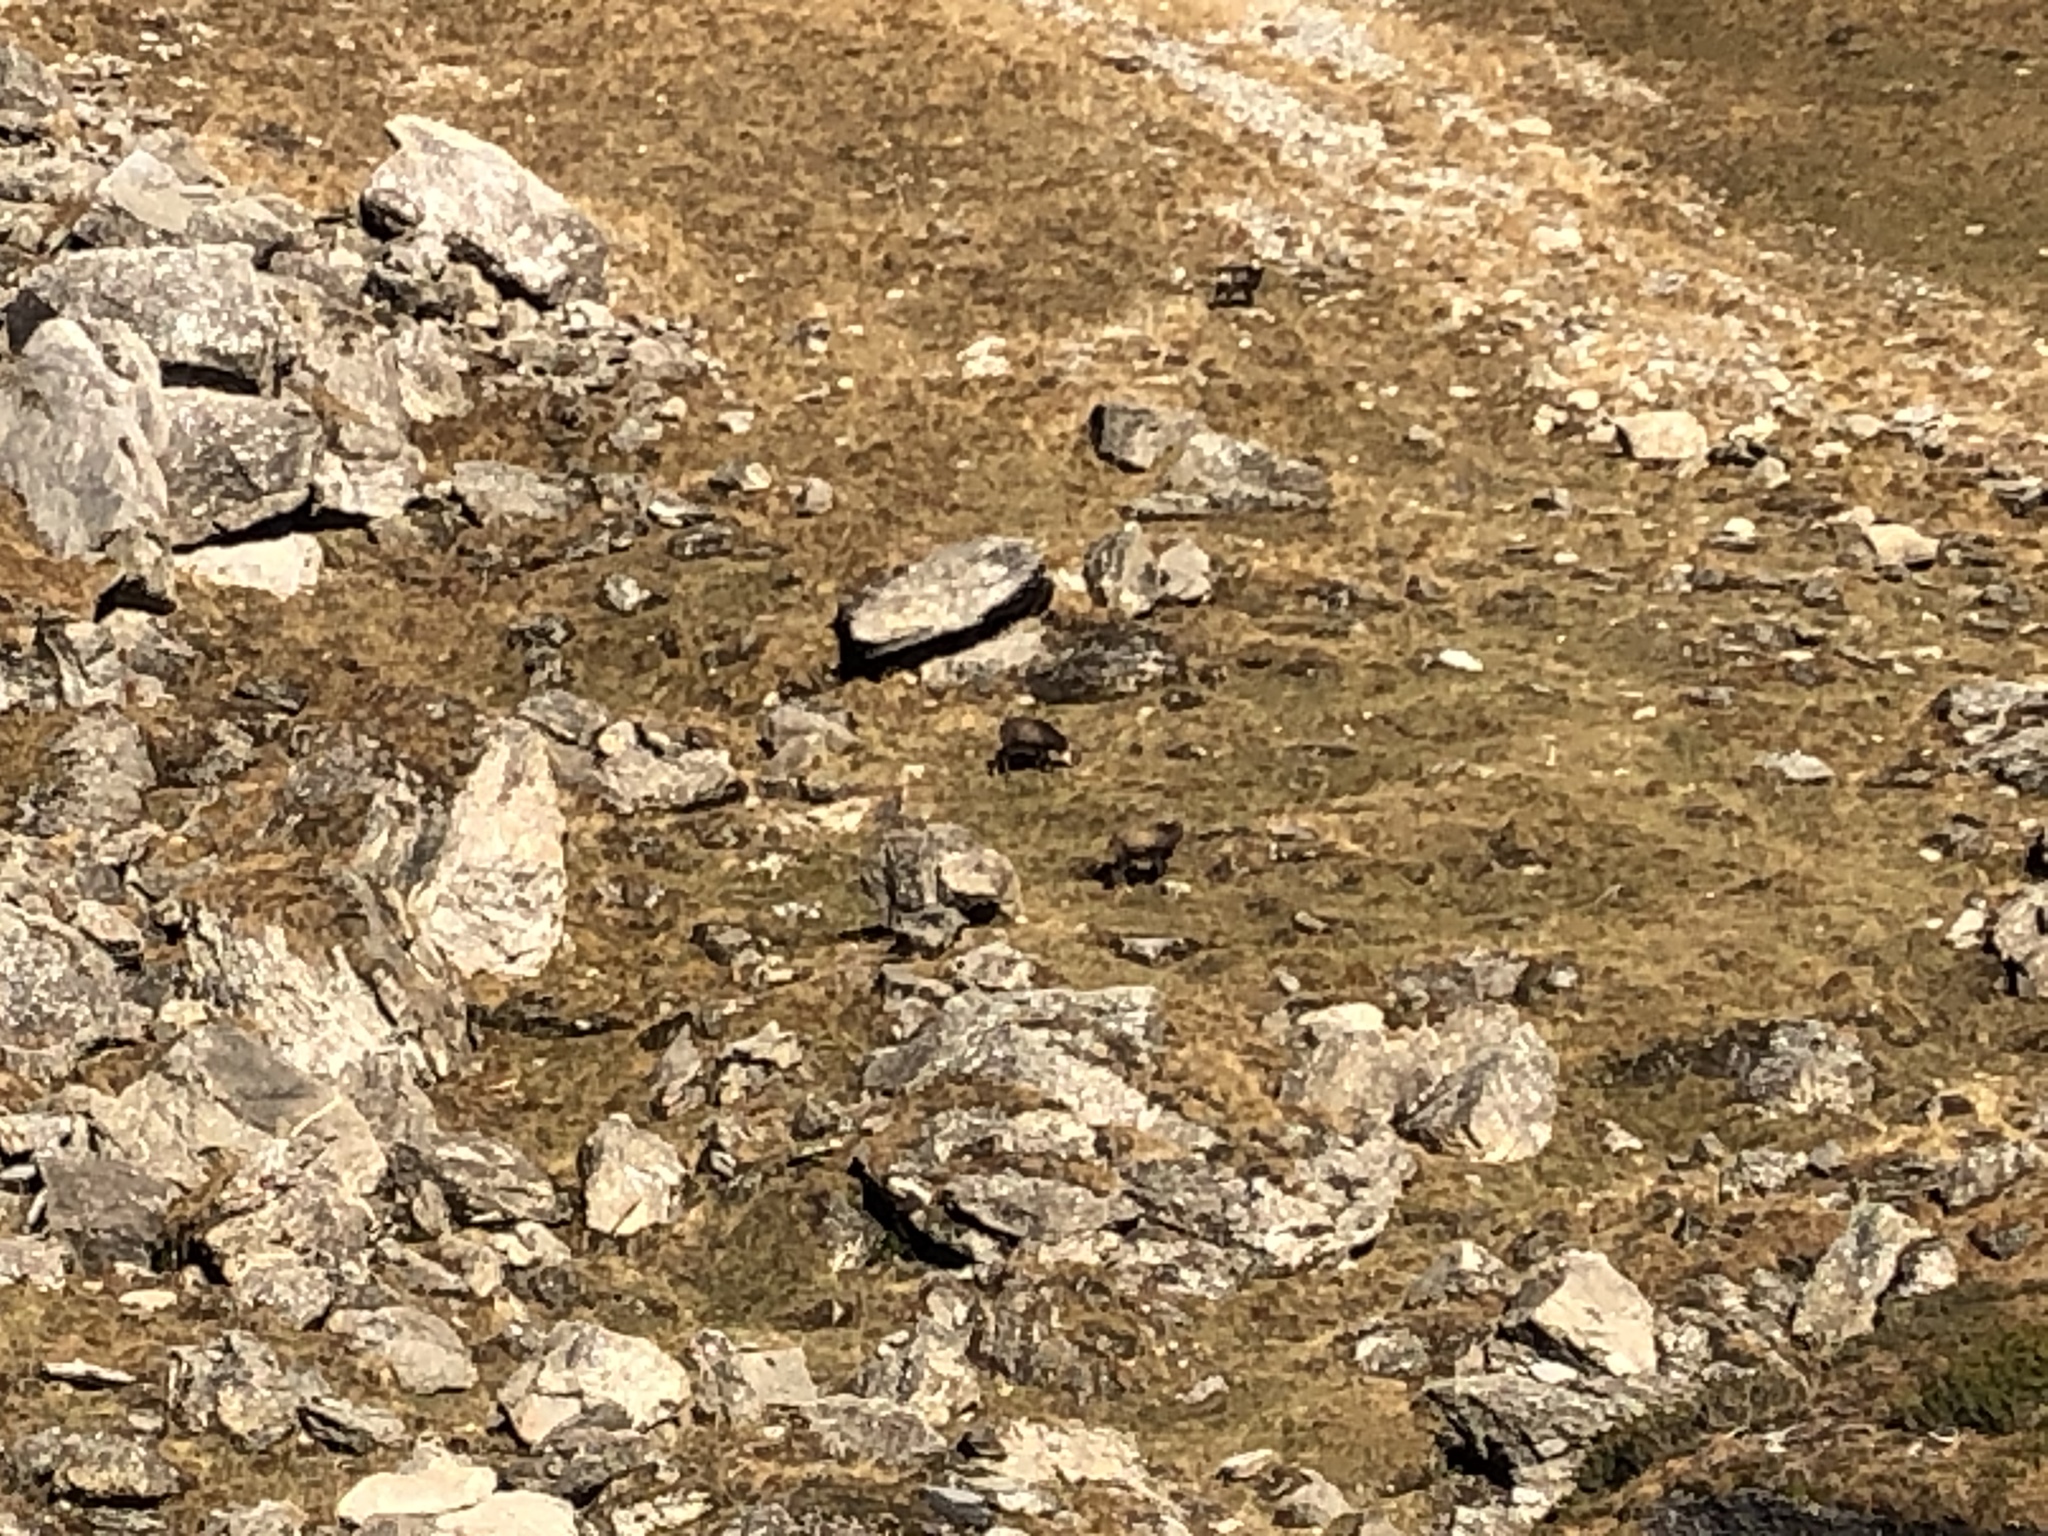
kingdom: Animalia
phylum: Chordata
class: Mammalia
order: Artiodactyla
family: Bovidae
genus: Rupicapra
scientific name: Rupicapra rupicapra
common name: Chamois
